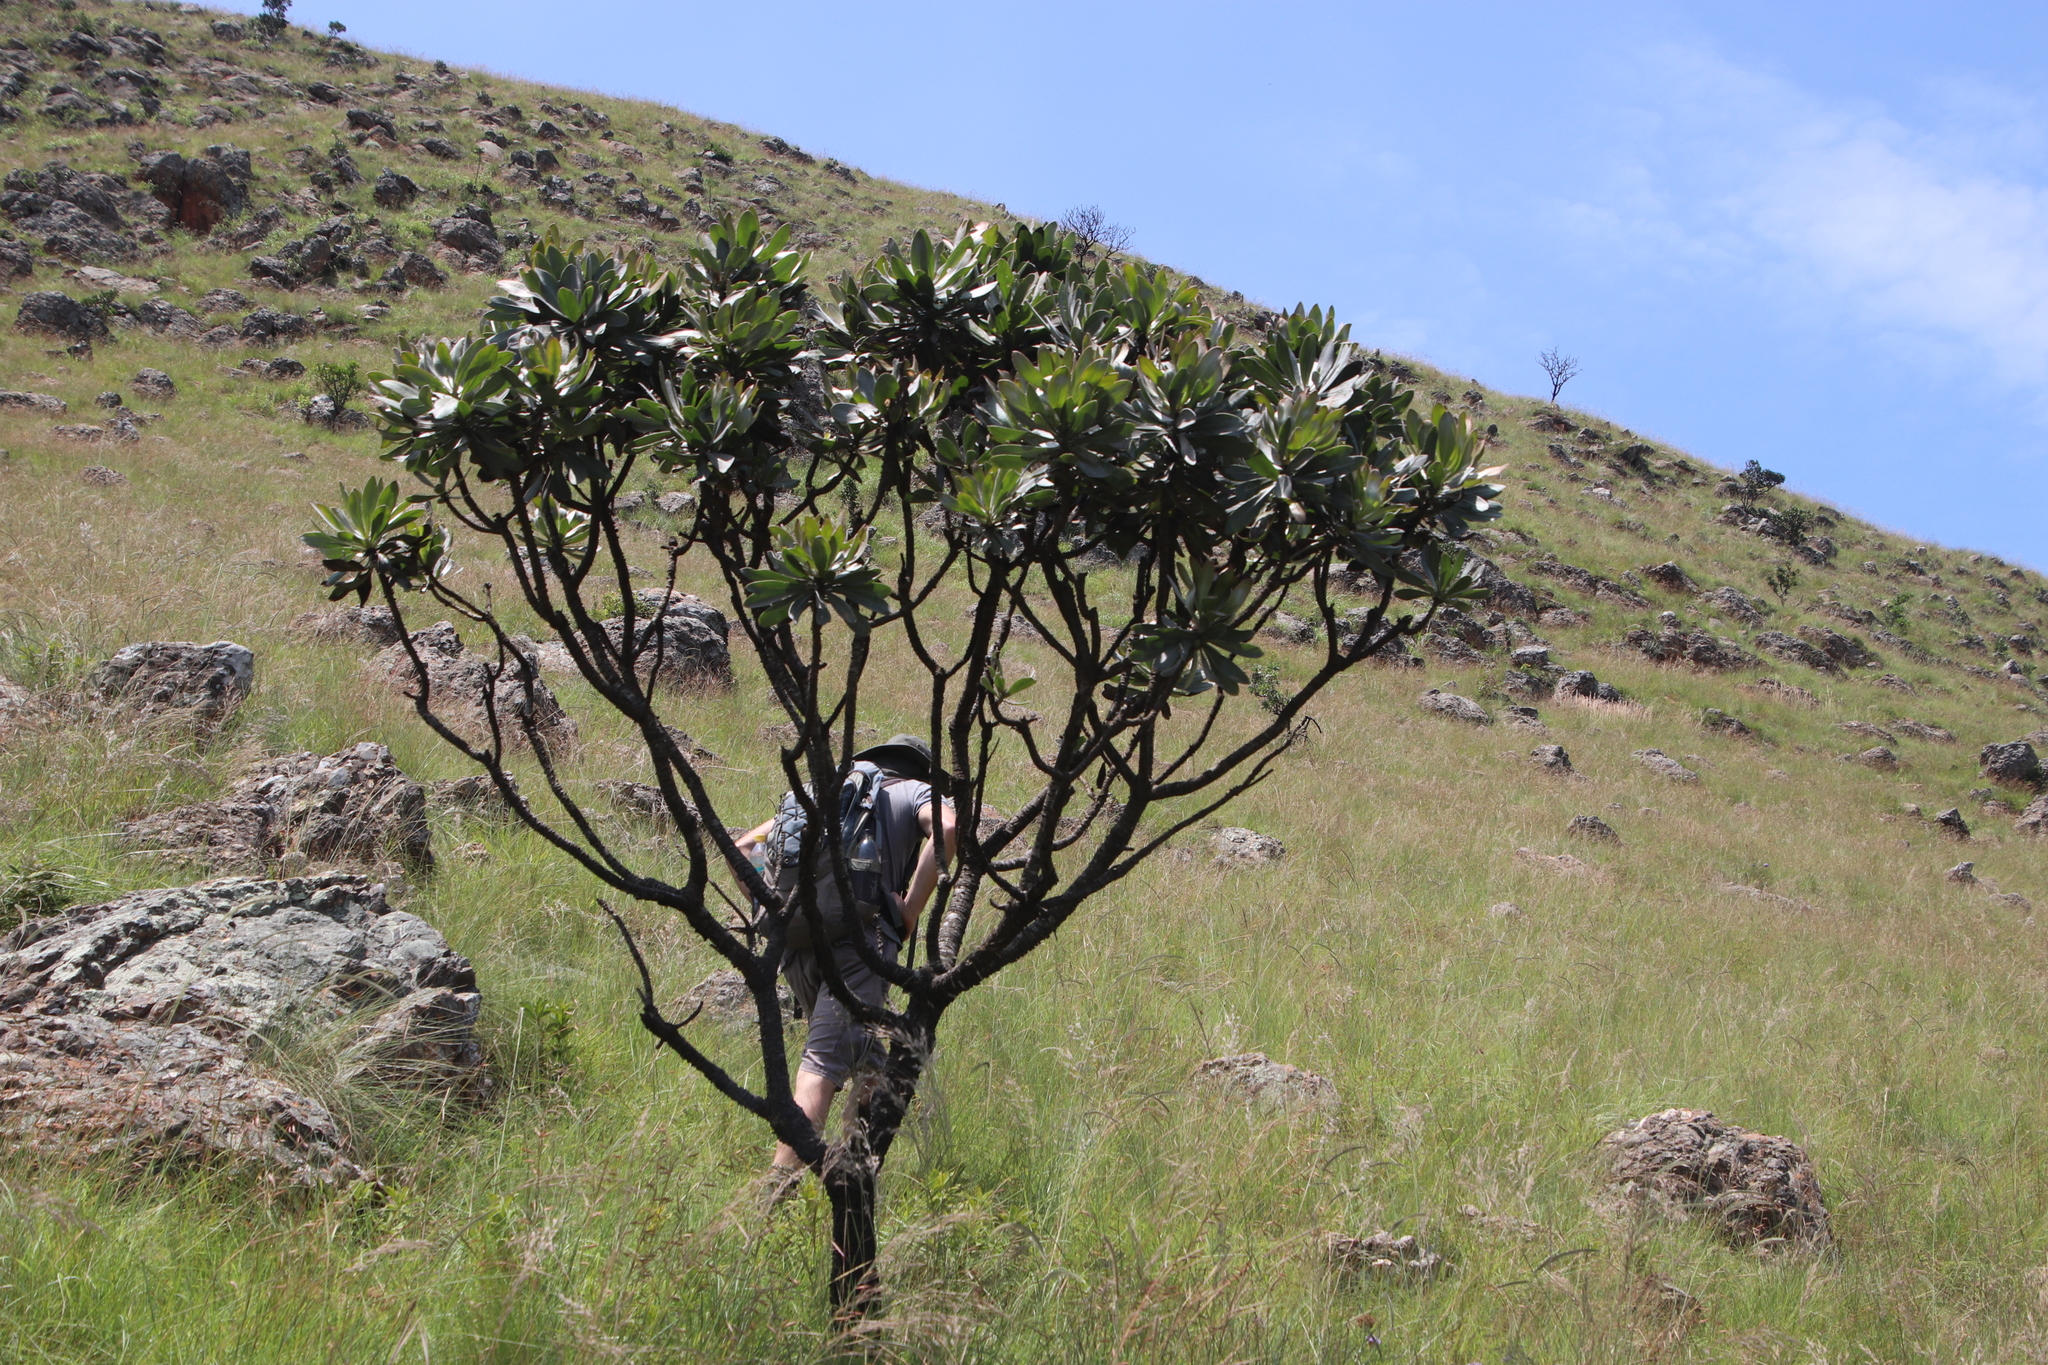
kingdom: Plantae
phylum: Tracheophyta
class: Magnoliopsida
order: Proteales
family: Proteaceae
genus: Protea
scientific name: Protea roupelliae
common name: Silver sugarbush
